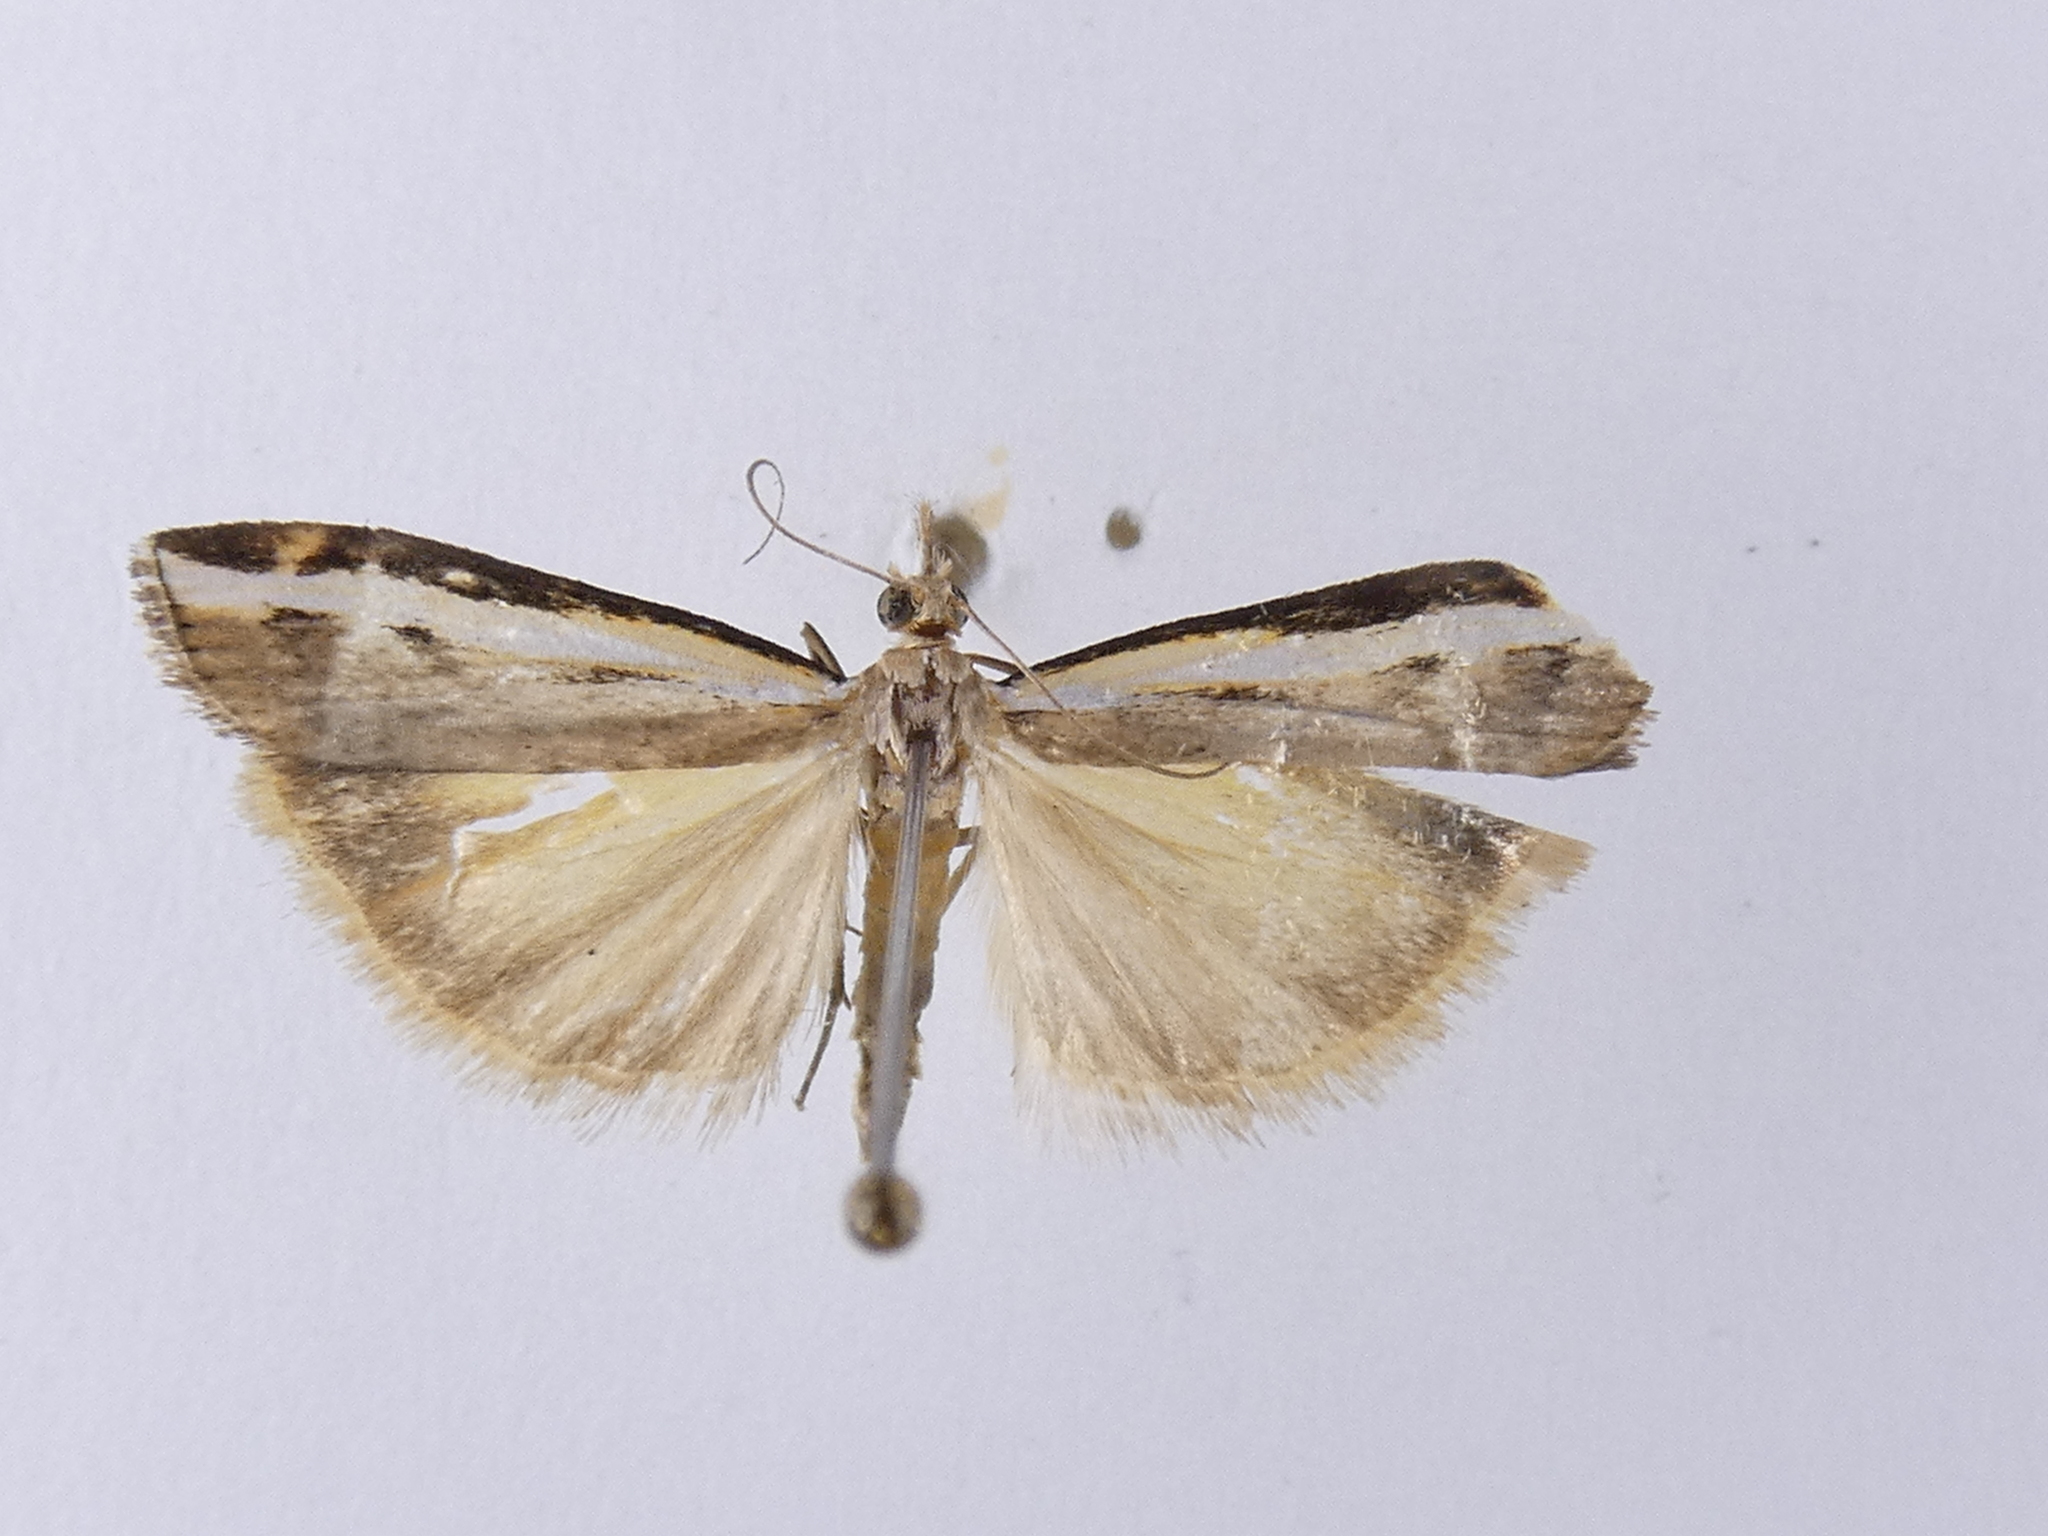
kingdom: Animalia
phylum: Arthropoda
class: Insecta
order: Lepidoptera
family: Crambidae
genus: Orocrambus
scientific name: Orocrambus flexuosellus
